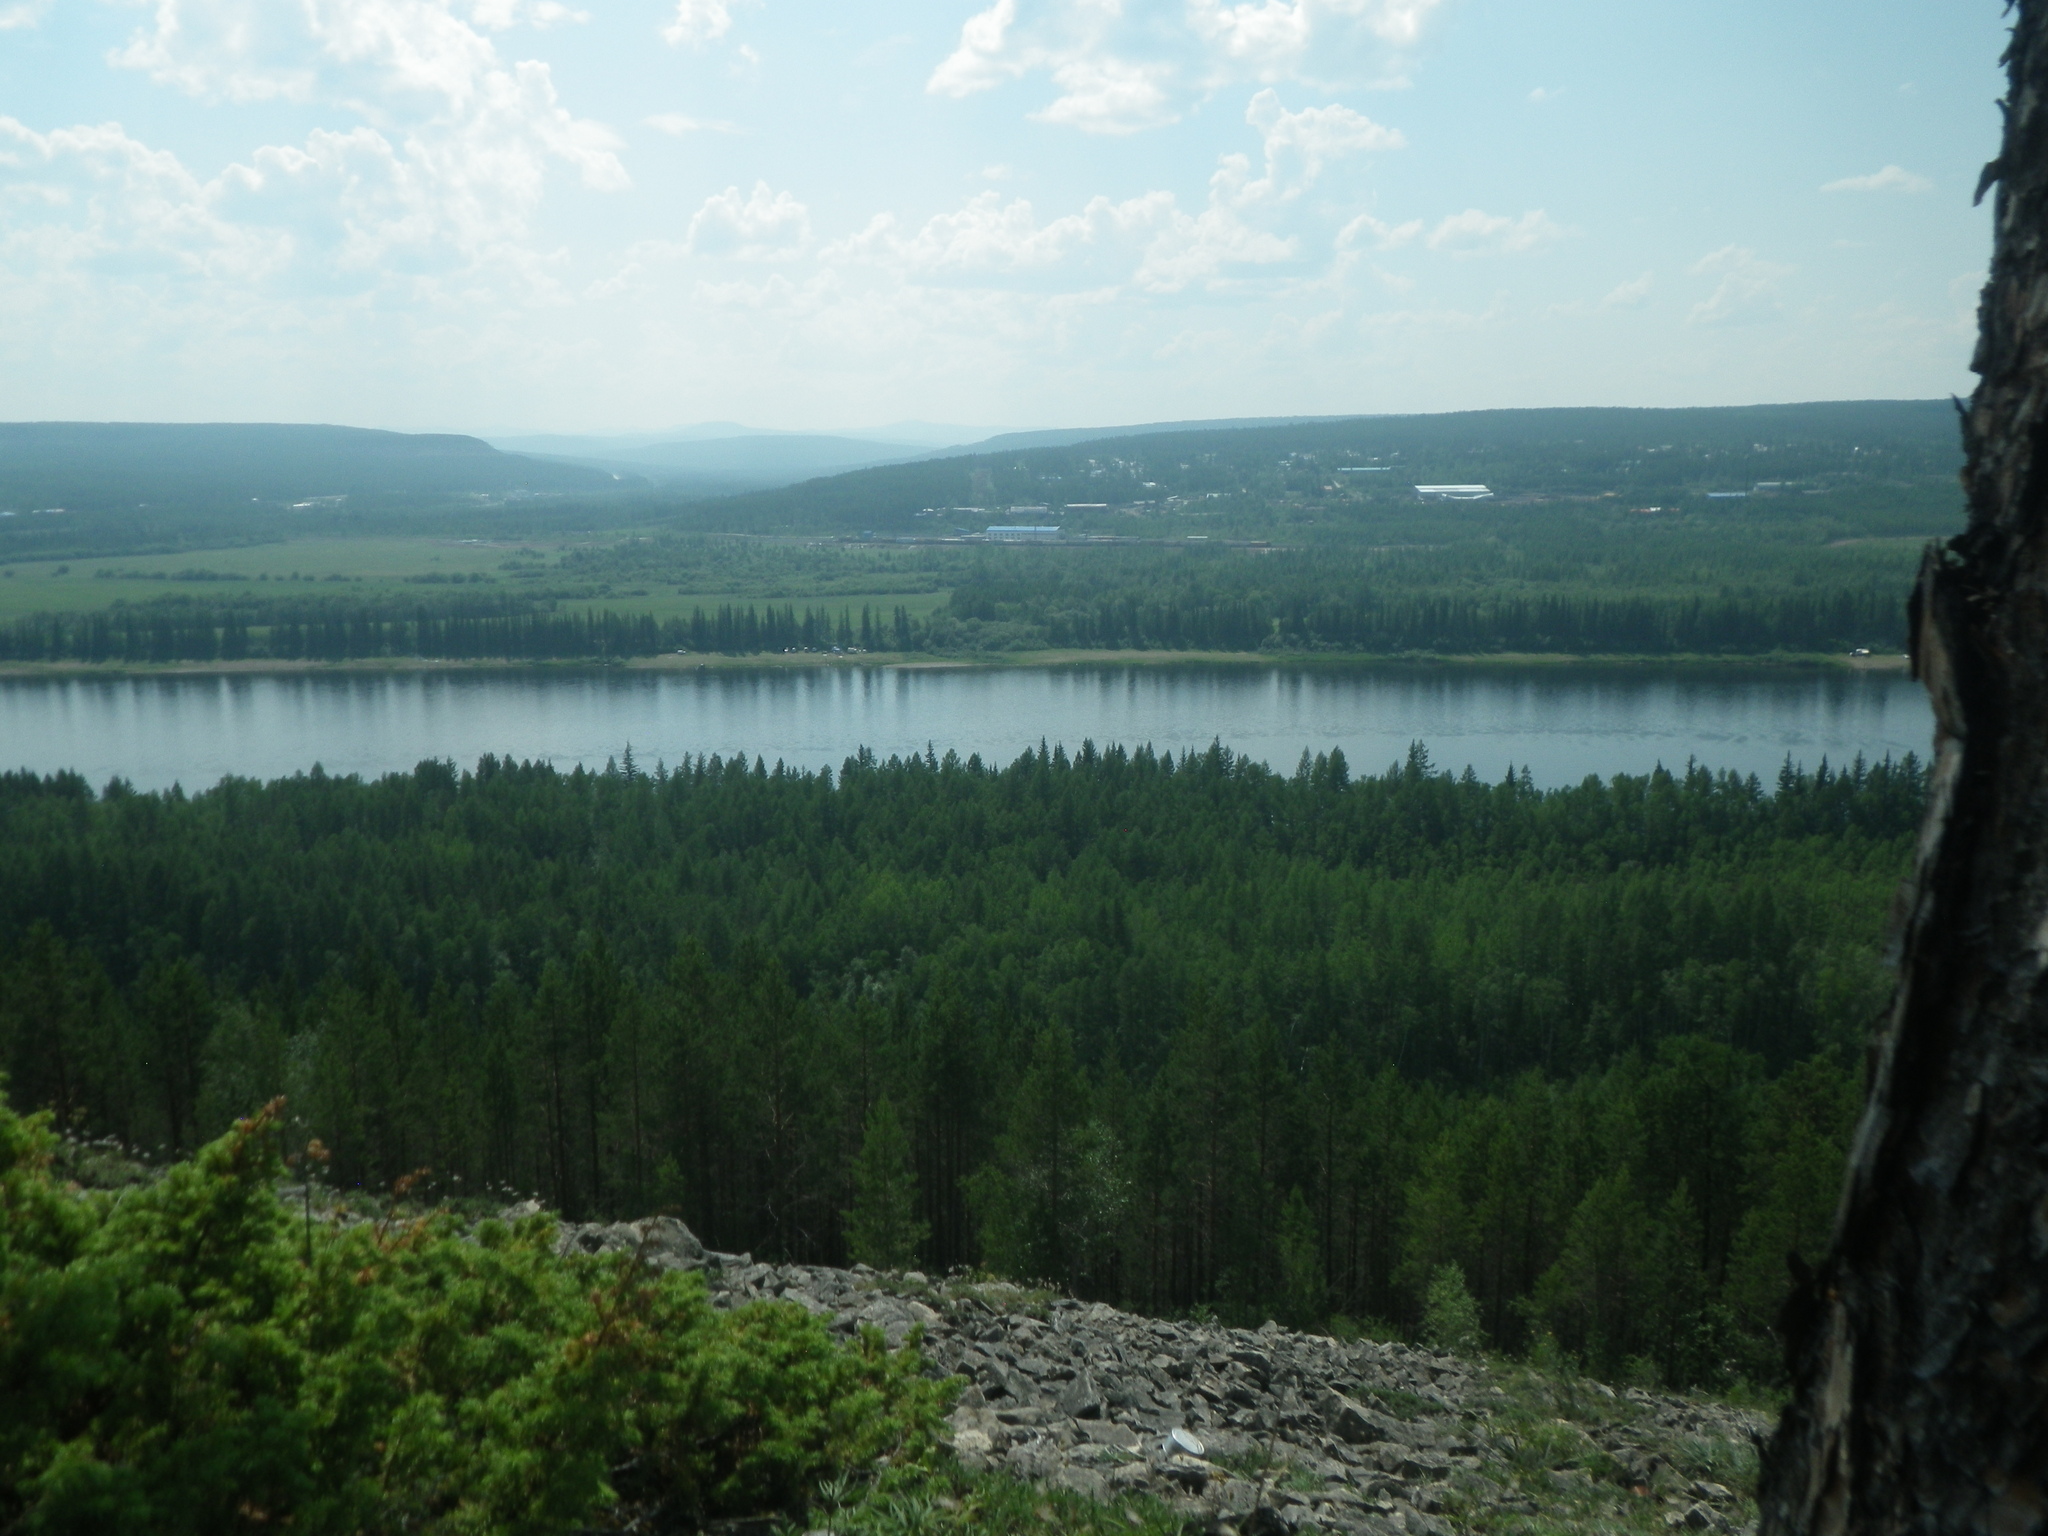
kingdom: Plantae
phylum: Tracheophyta
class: Pinopsida
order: Pinales
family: Pinaceae
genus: Pinus
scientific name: Pinus sylvestris
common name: Scots pine
